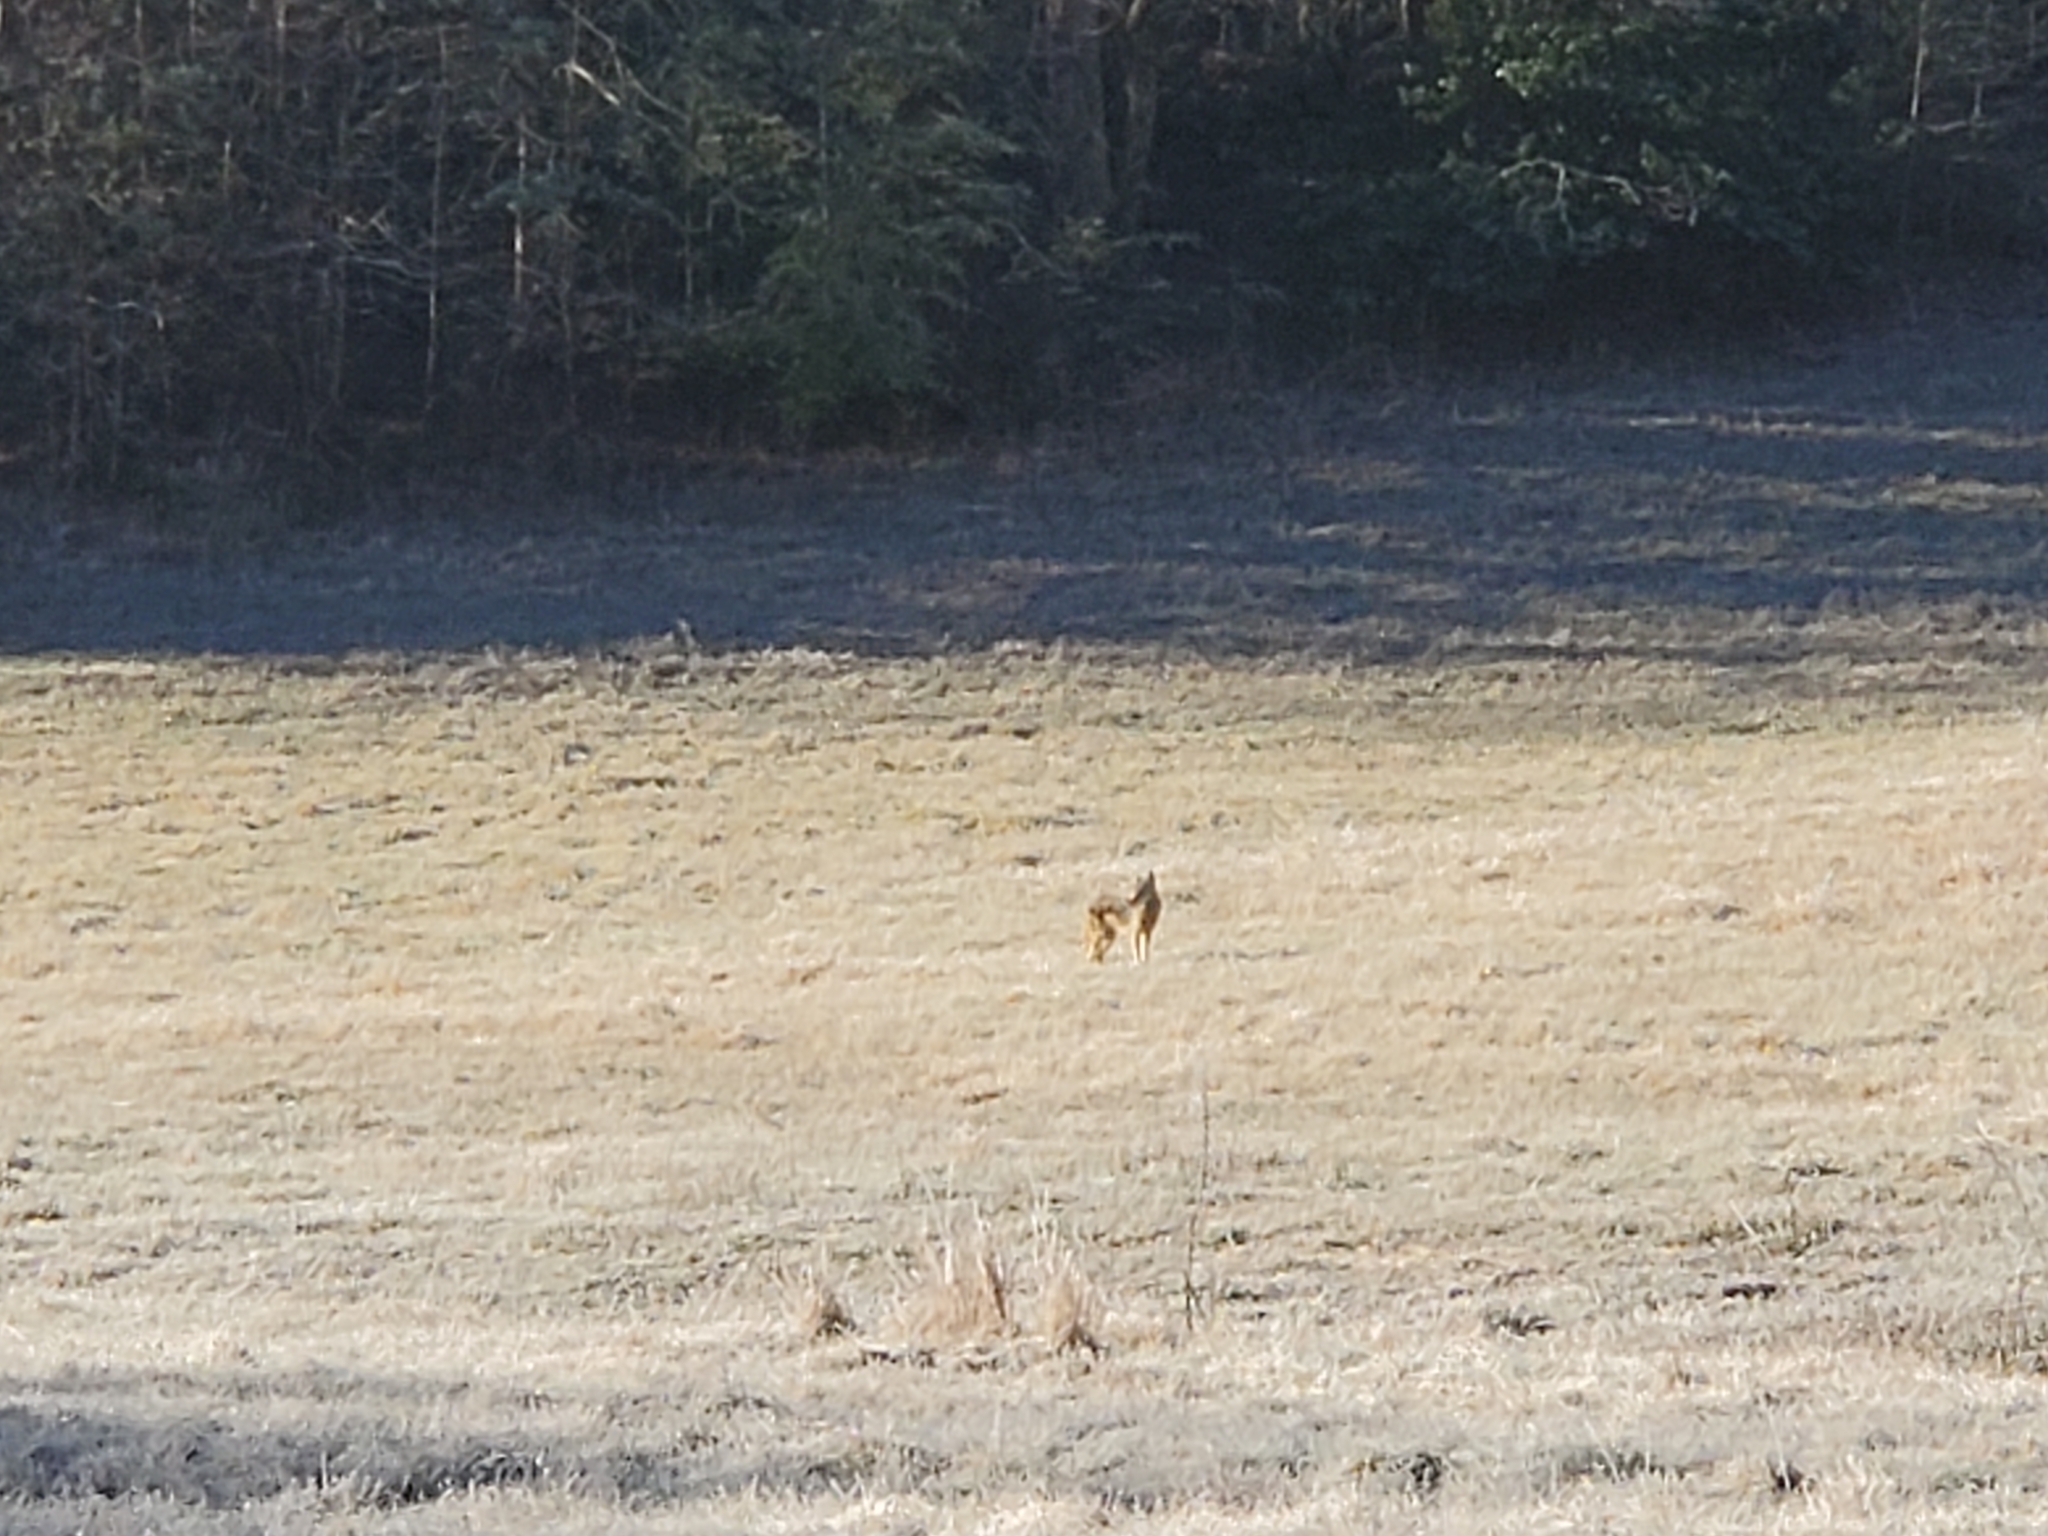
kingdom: Animalia
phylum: Chordata
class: Mammalia
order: Carnivora
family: Canidae
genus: Canis
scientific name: Canis latrans
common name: Coyote
